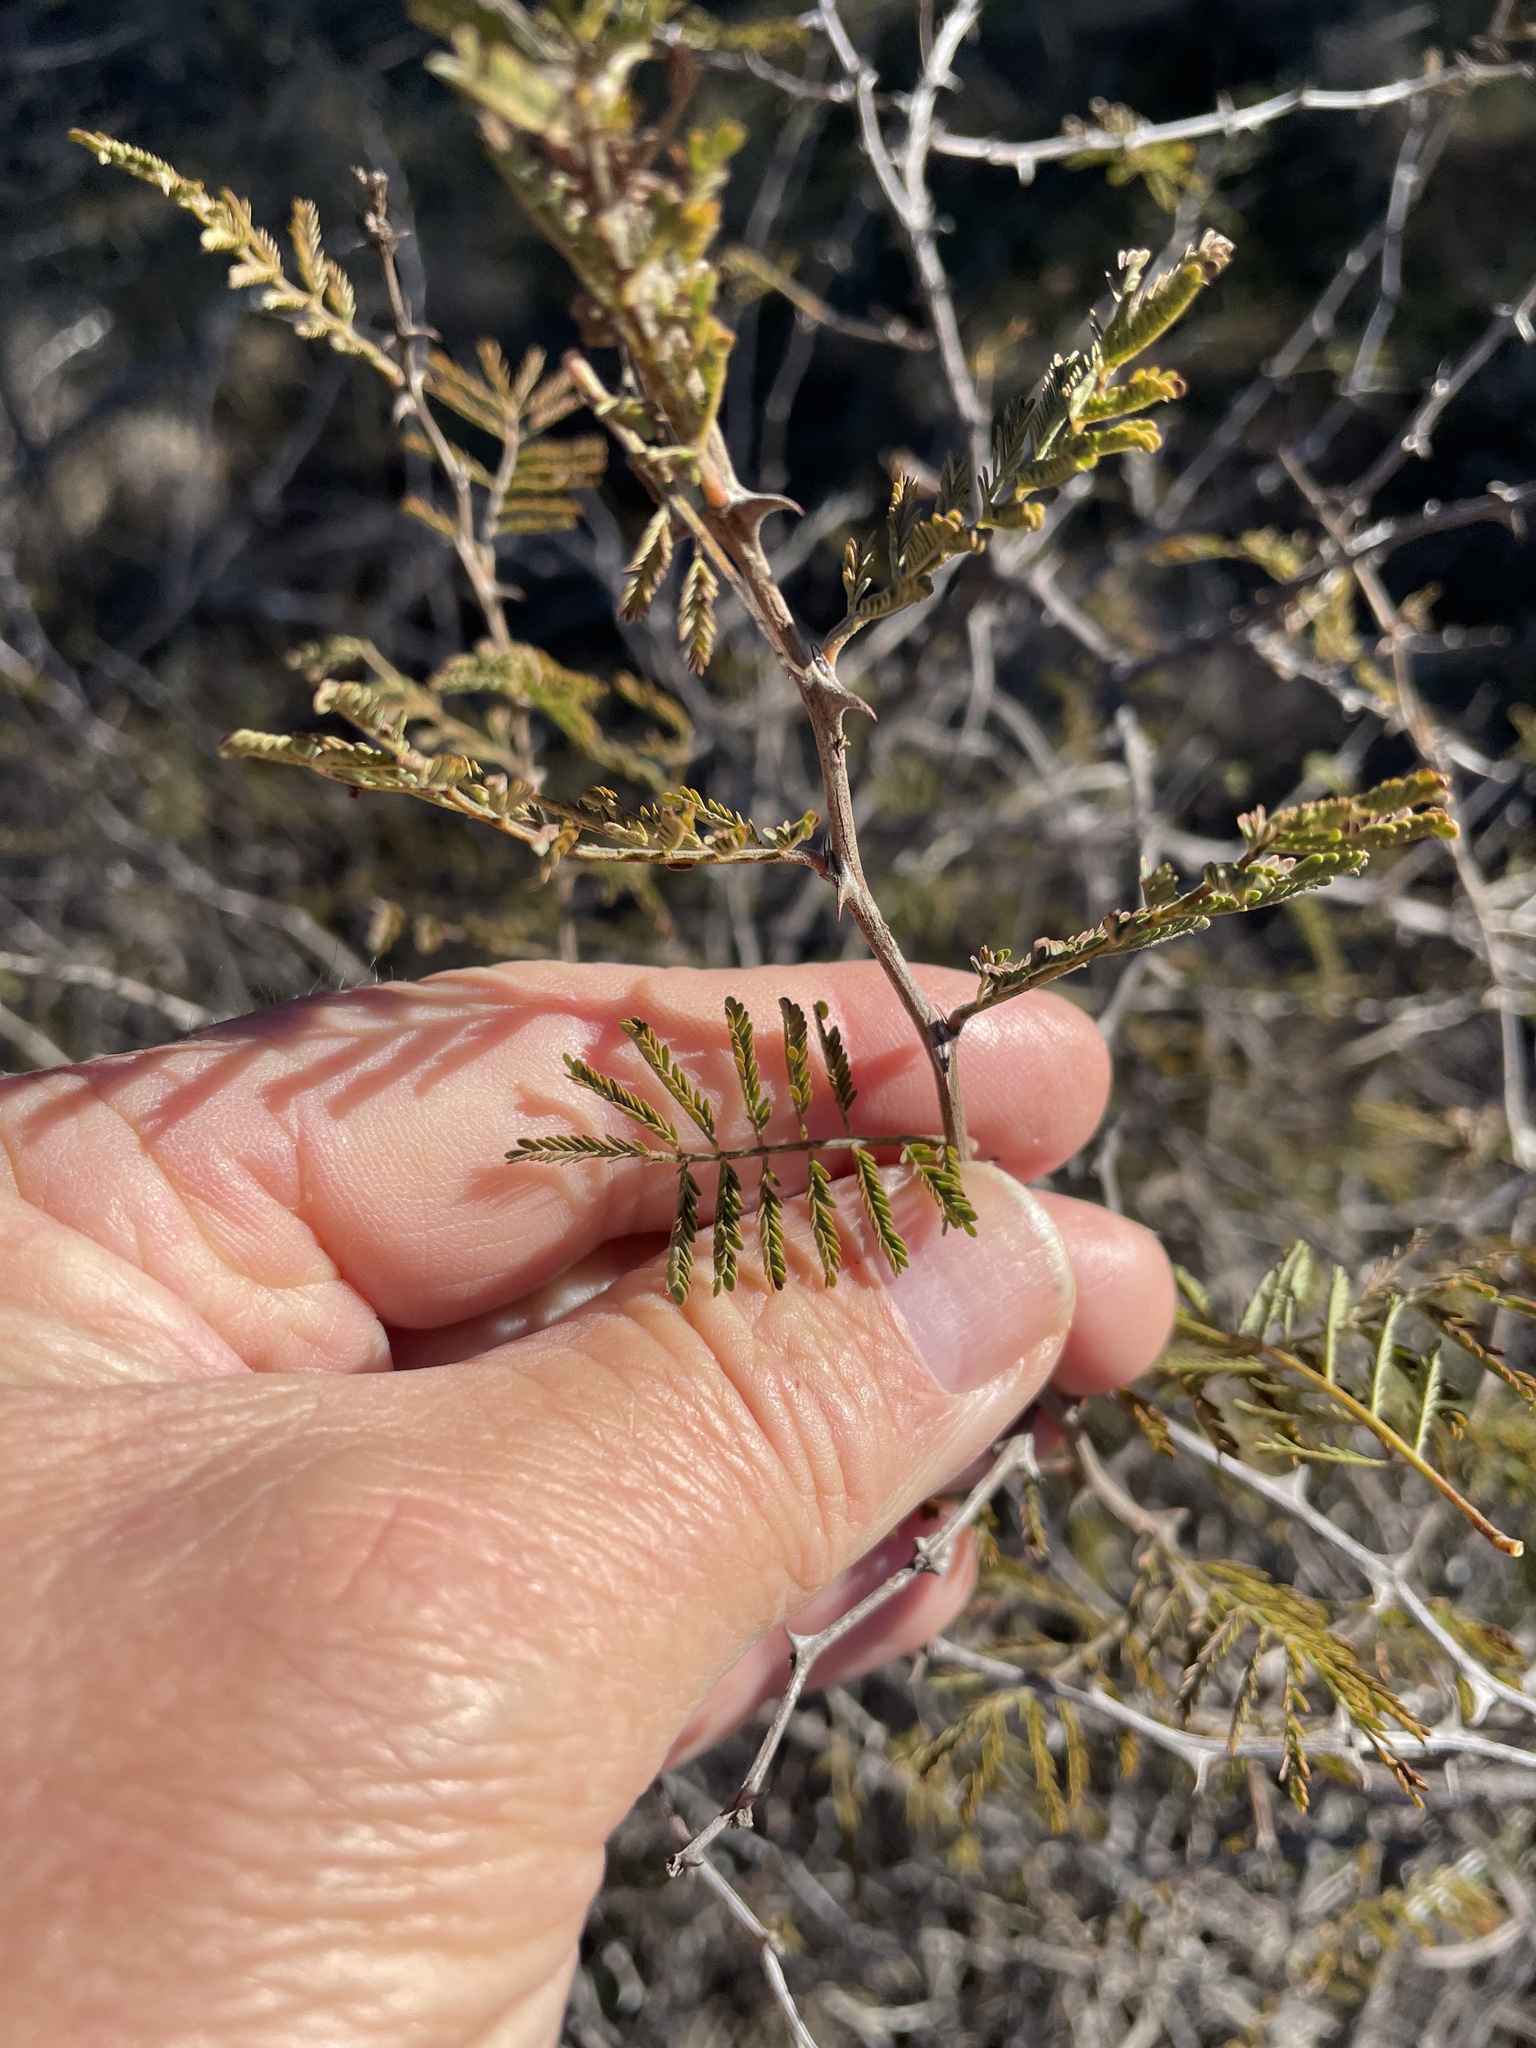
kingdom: Plantae
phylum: Tracheophyta
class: Magnoliopsida
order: Fabales
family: Fabaceae
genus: Mimosa
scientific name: Mimosa aculeaticarpa
